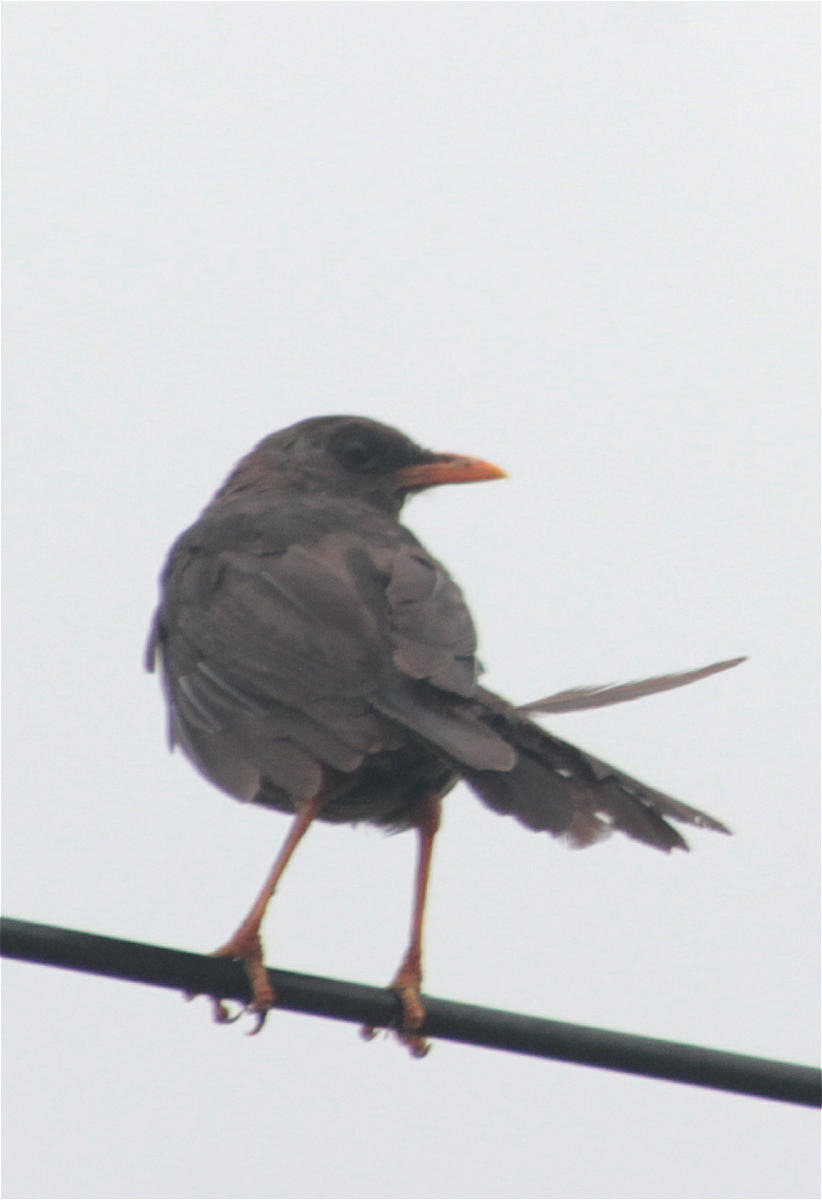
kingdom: Animalia
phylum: Chordata
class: Aves
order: Passeriformes
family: Turdidae
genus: Turdus
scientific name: Turdus fuscater
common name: Great thrush
